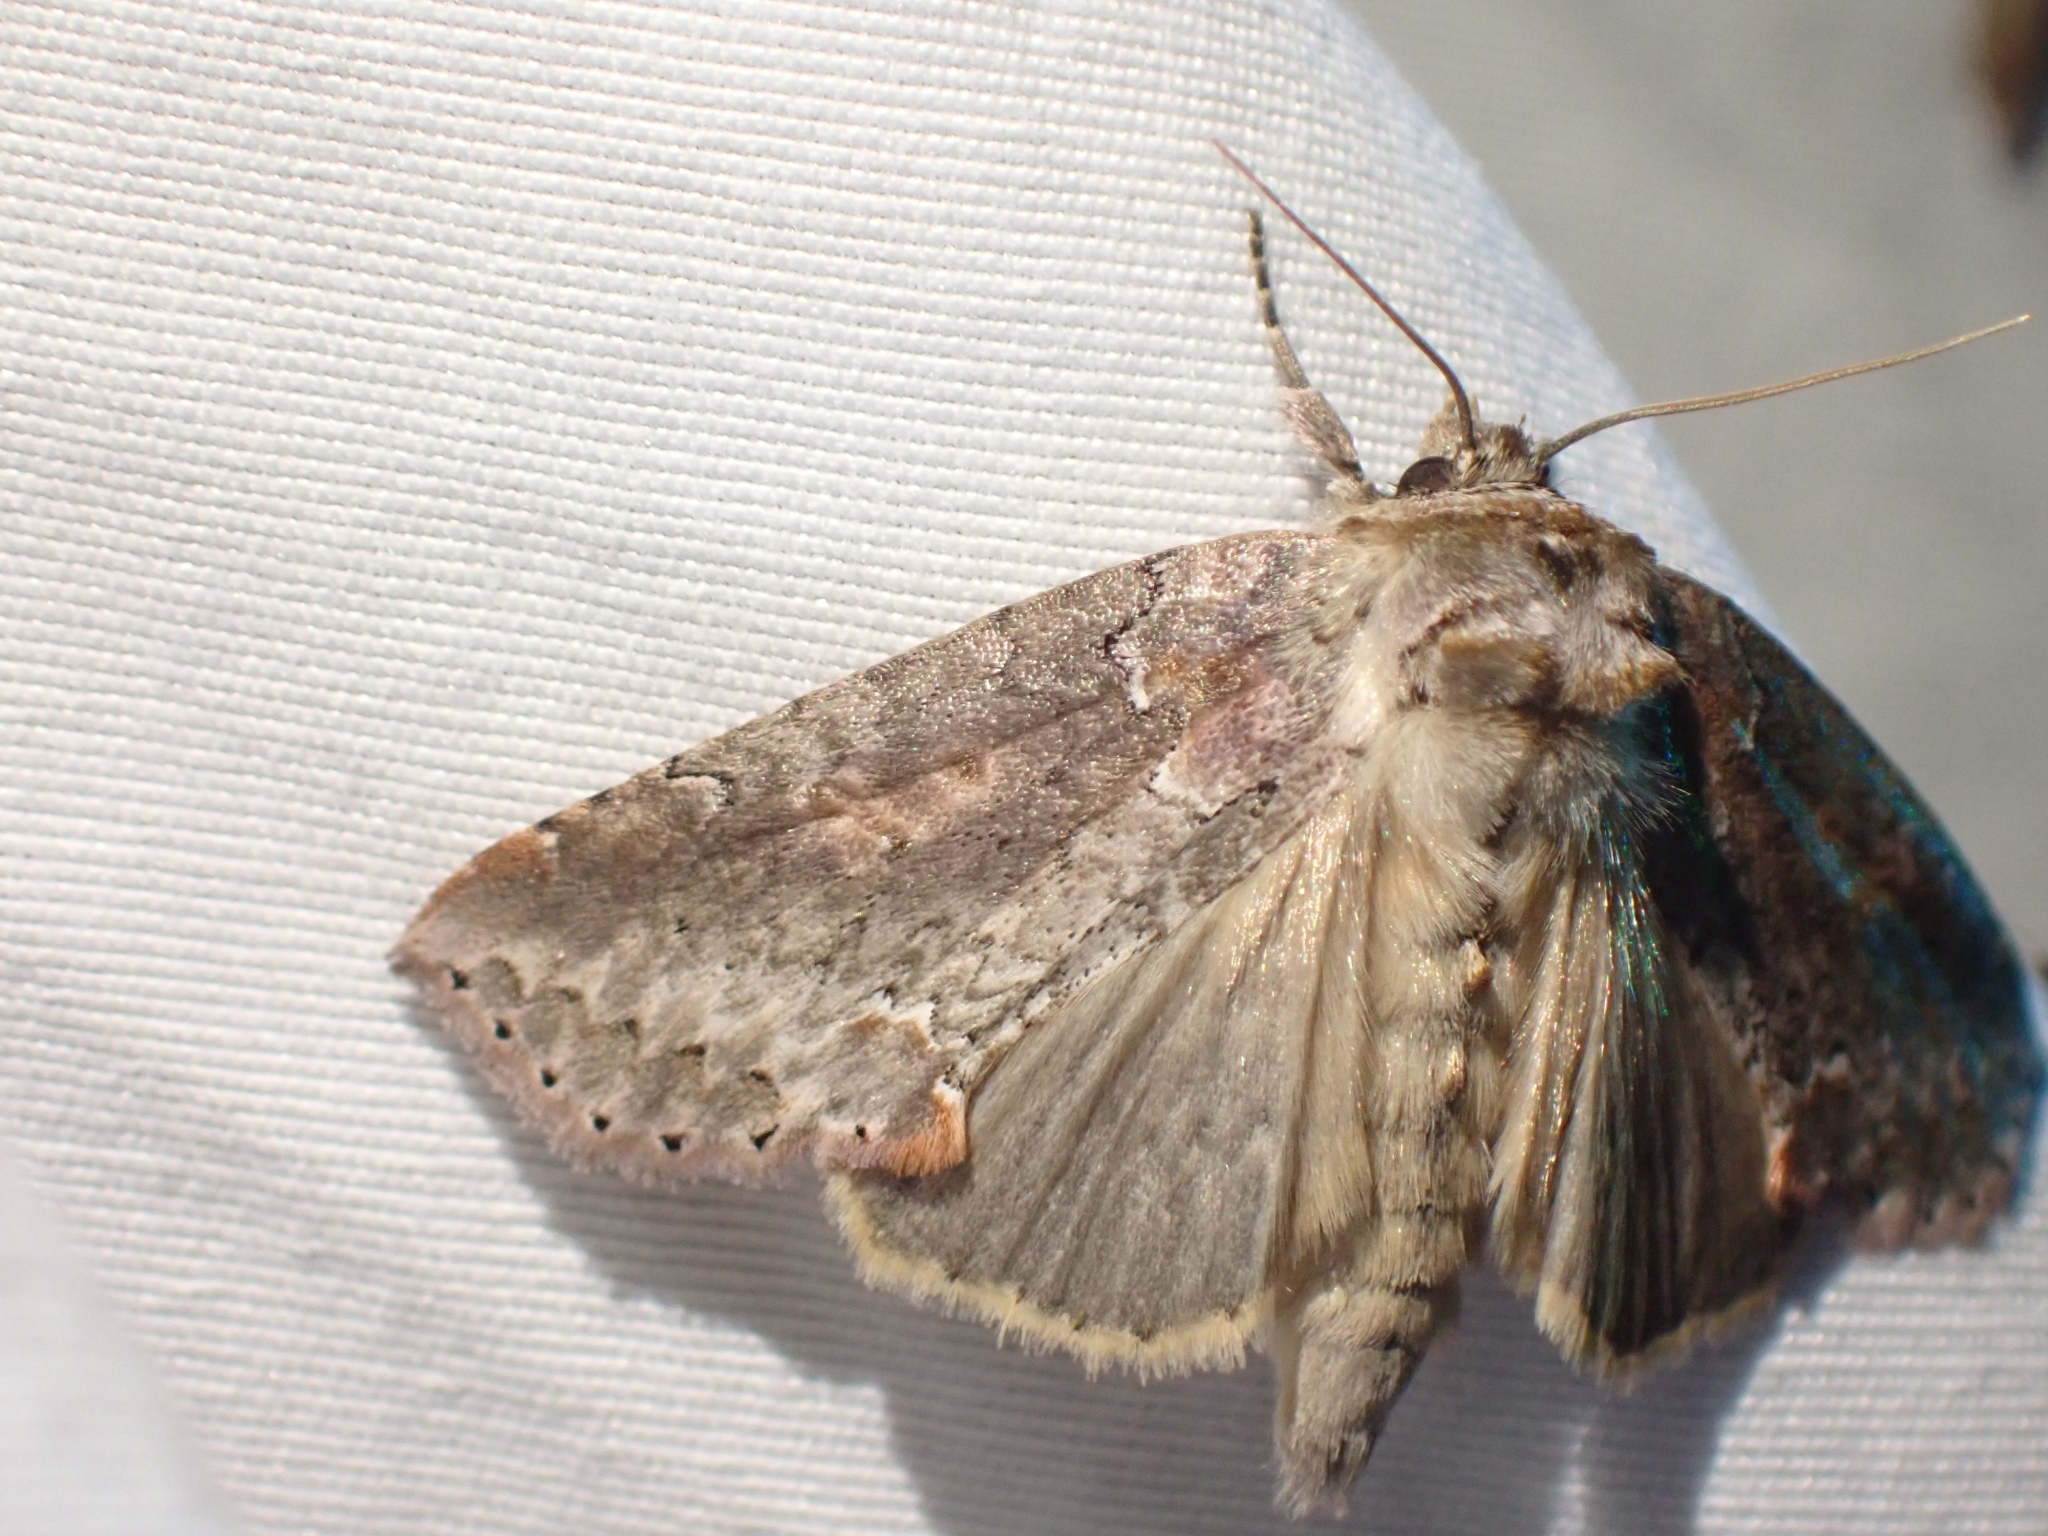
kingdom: Animalia
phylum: Arthropoda
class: Insecta
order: Lepidoptera
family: Drepanidae
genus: Pseudothyatira
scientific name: Pseudothyatira cymatophoroides
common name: Tufted thyatirid moth
